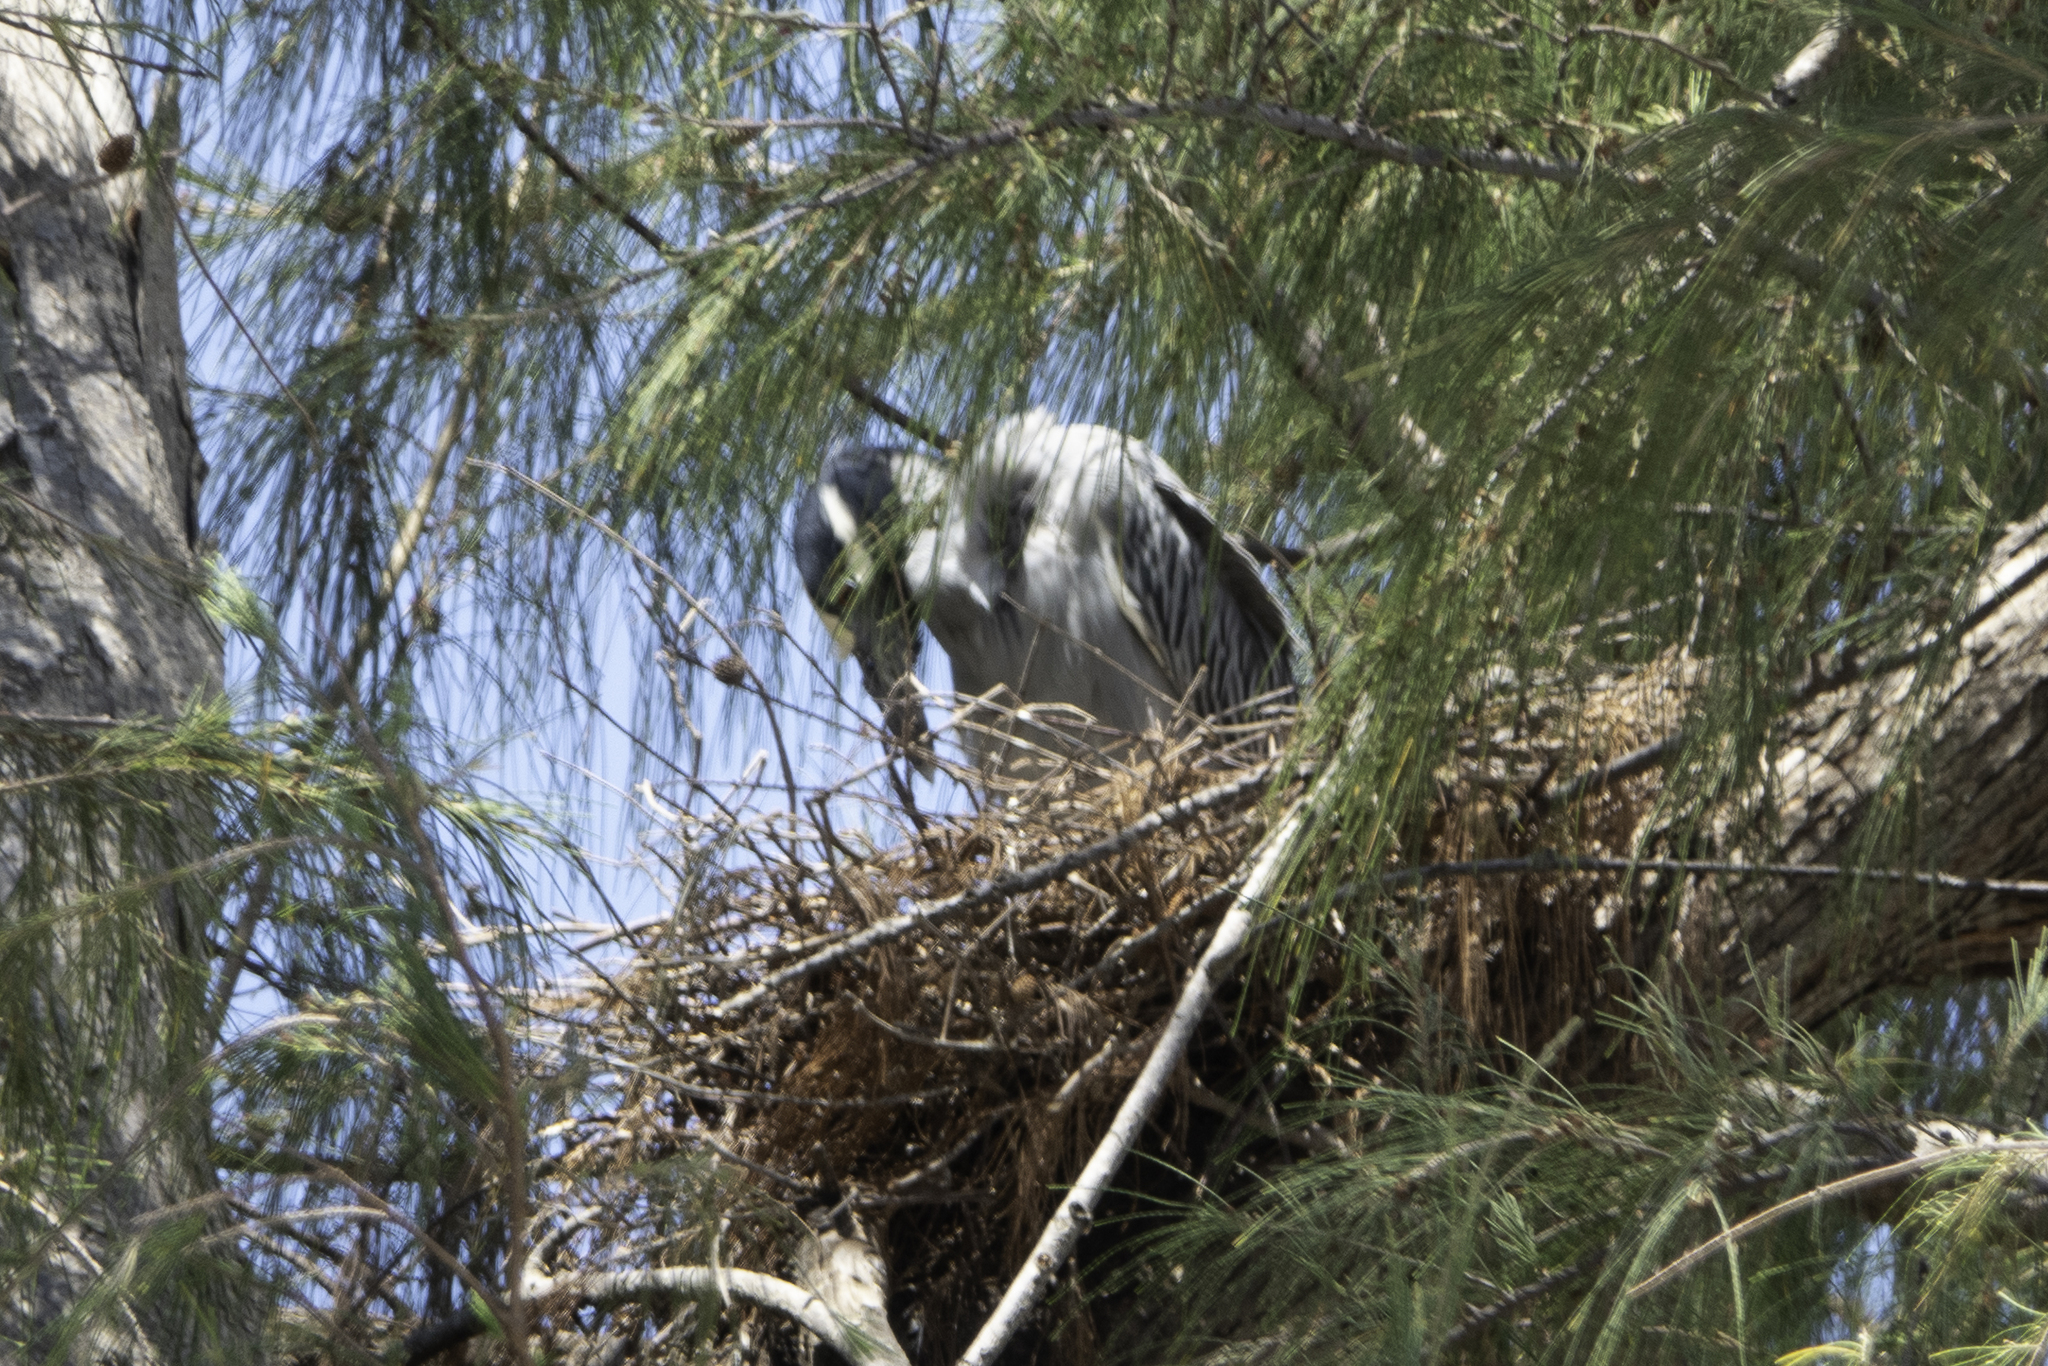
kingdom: Animalia
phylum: Chordata
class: Aves
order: Pelecaniformes
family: Ardeidae
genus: Nyctanassa
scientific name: Nyctanassa violacea
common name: Yellow-crowned night heron
